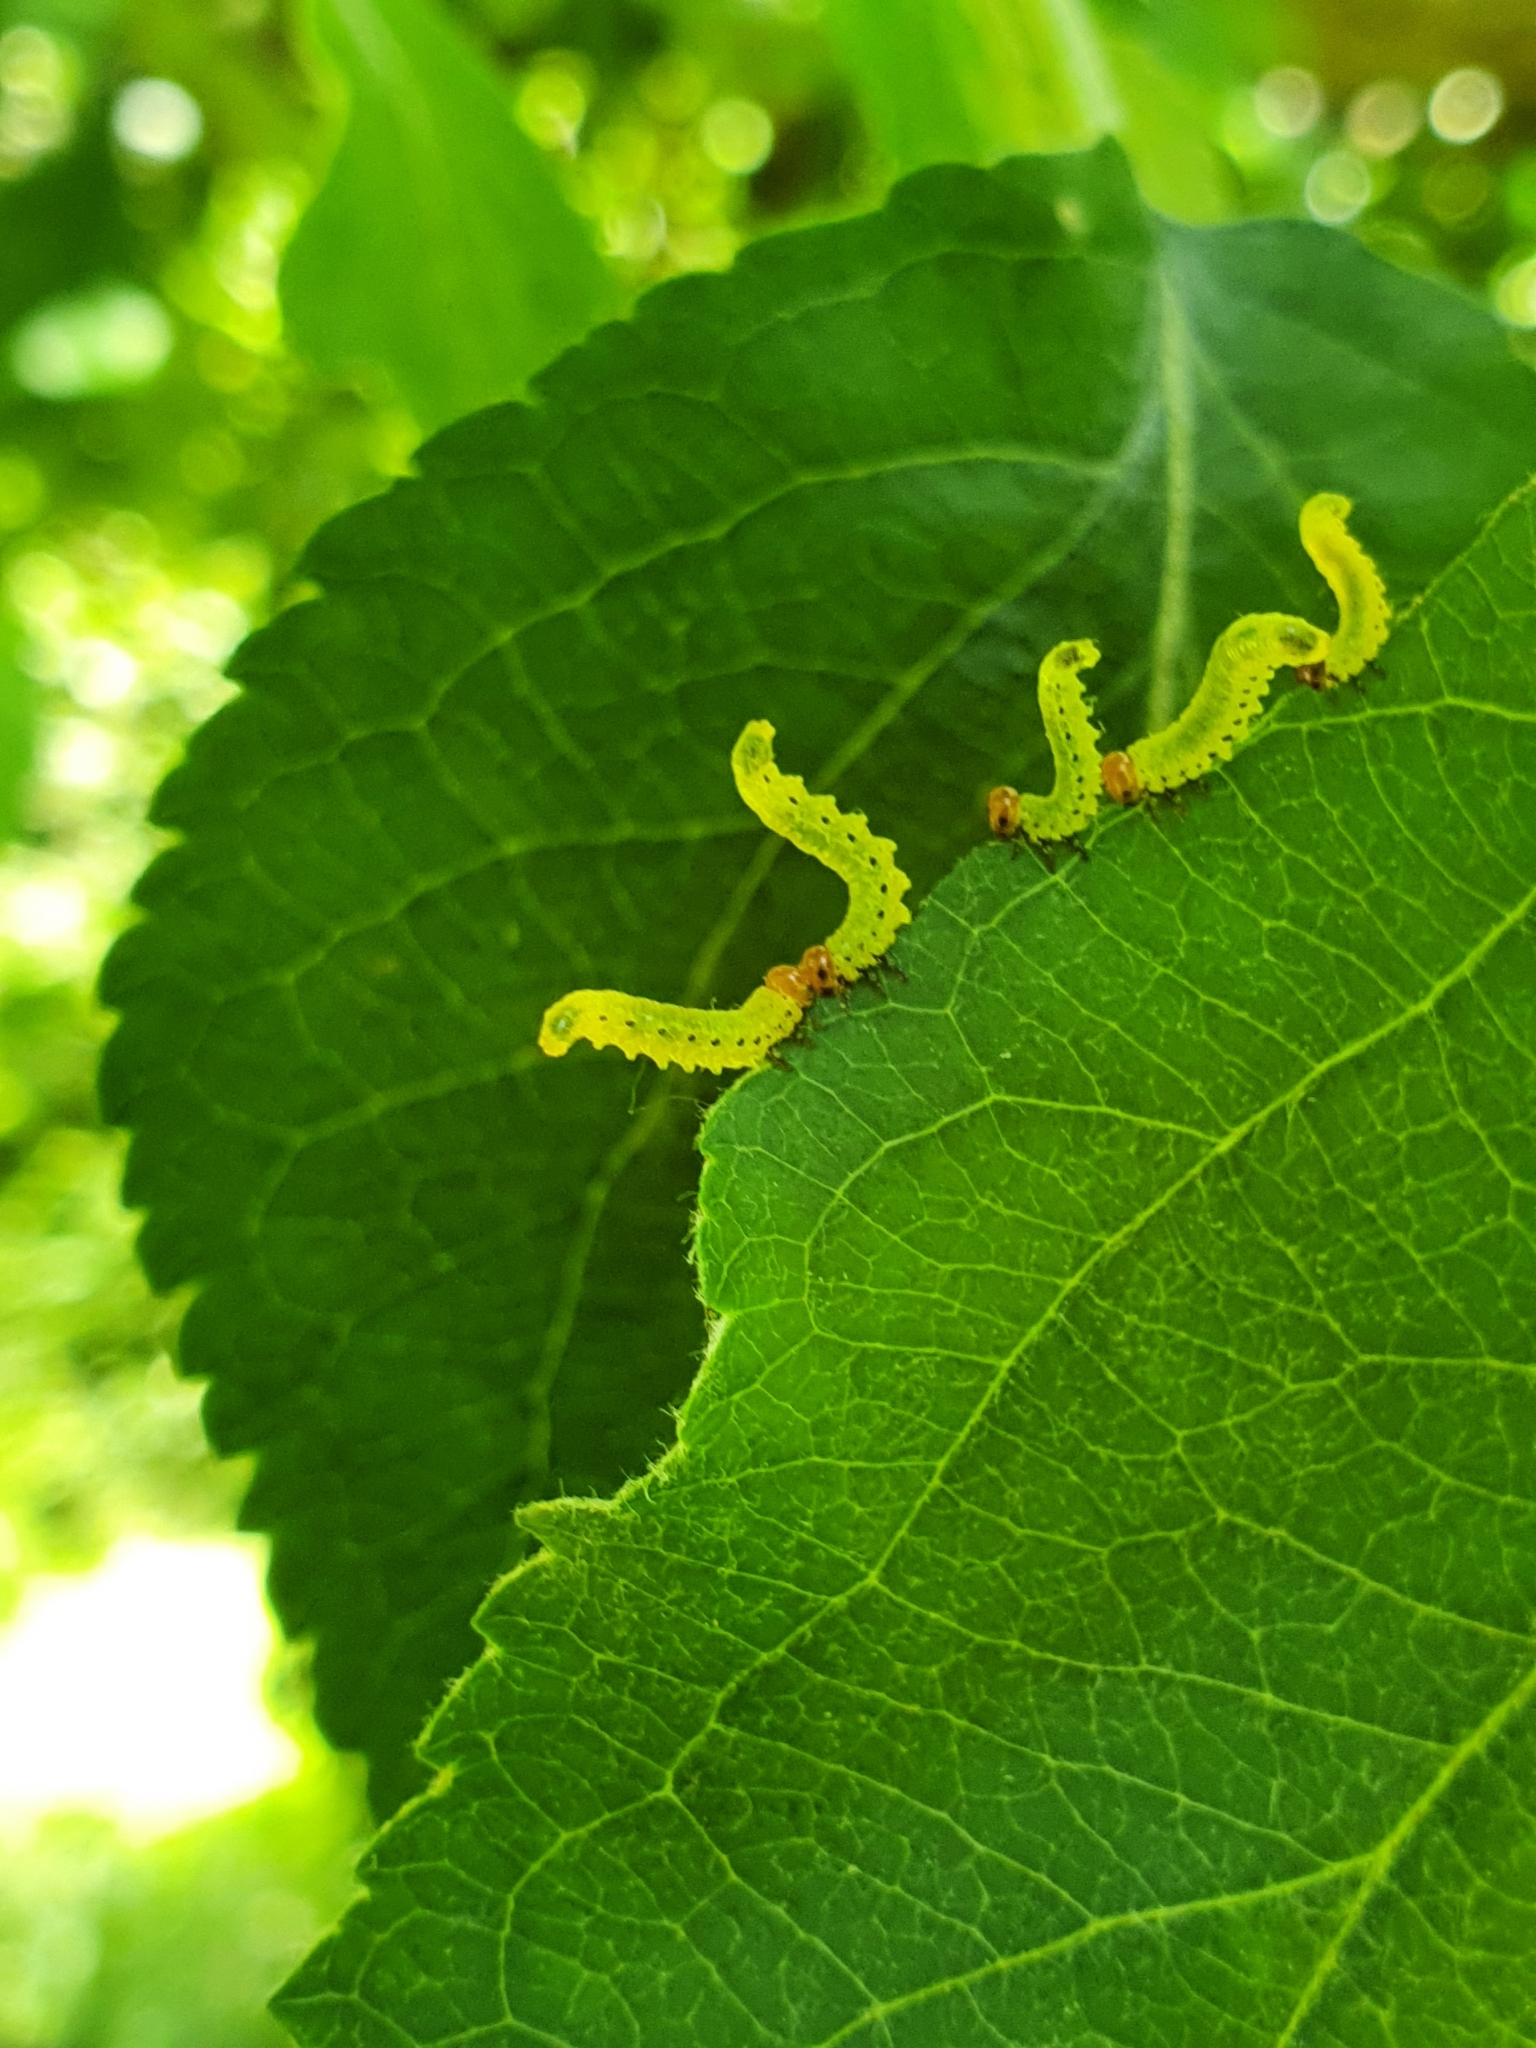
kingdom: Animalia
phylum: Arthropoda
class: Insecta
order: Hymenoptera
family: Tenthredinidae
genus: Pristiphora
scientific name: Pristiphora maesta
